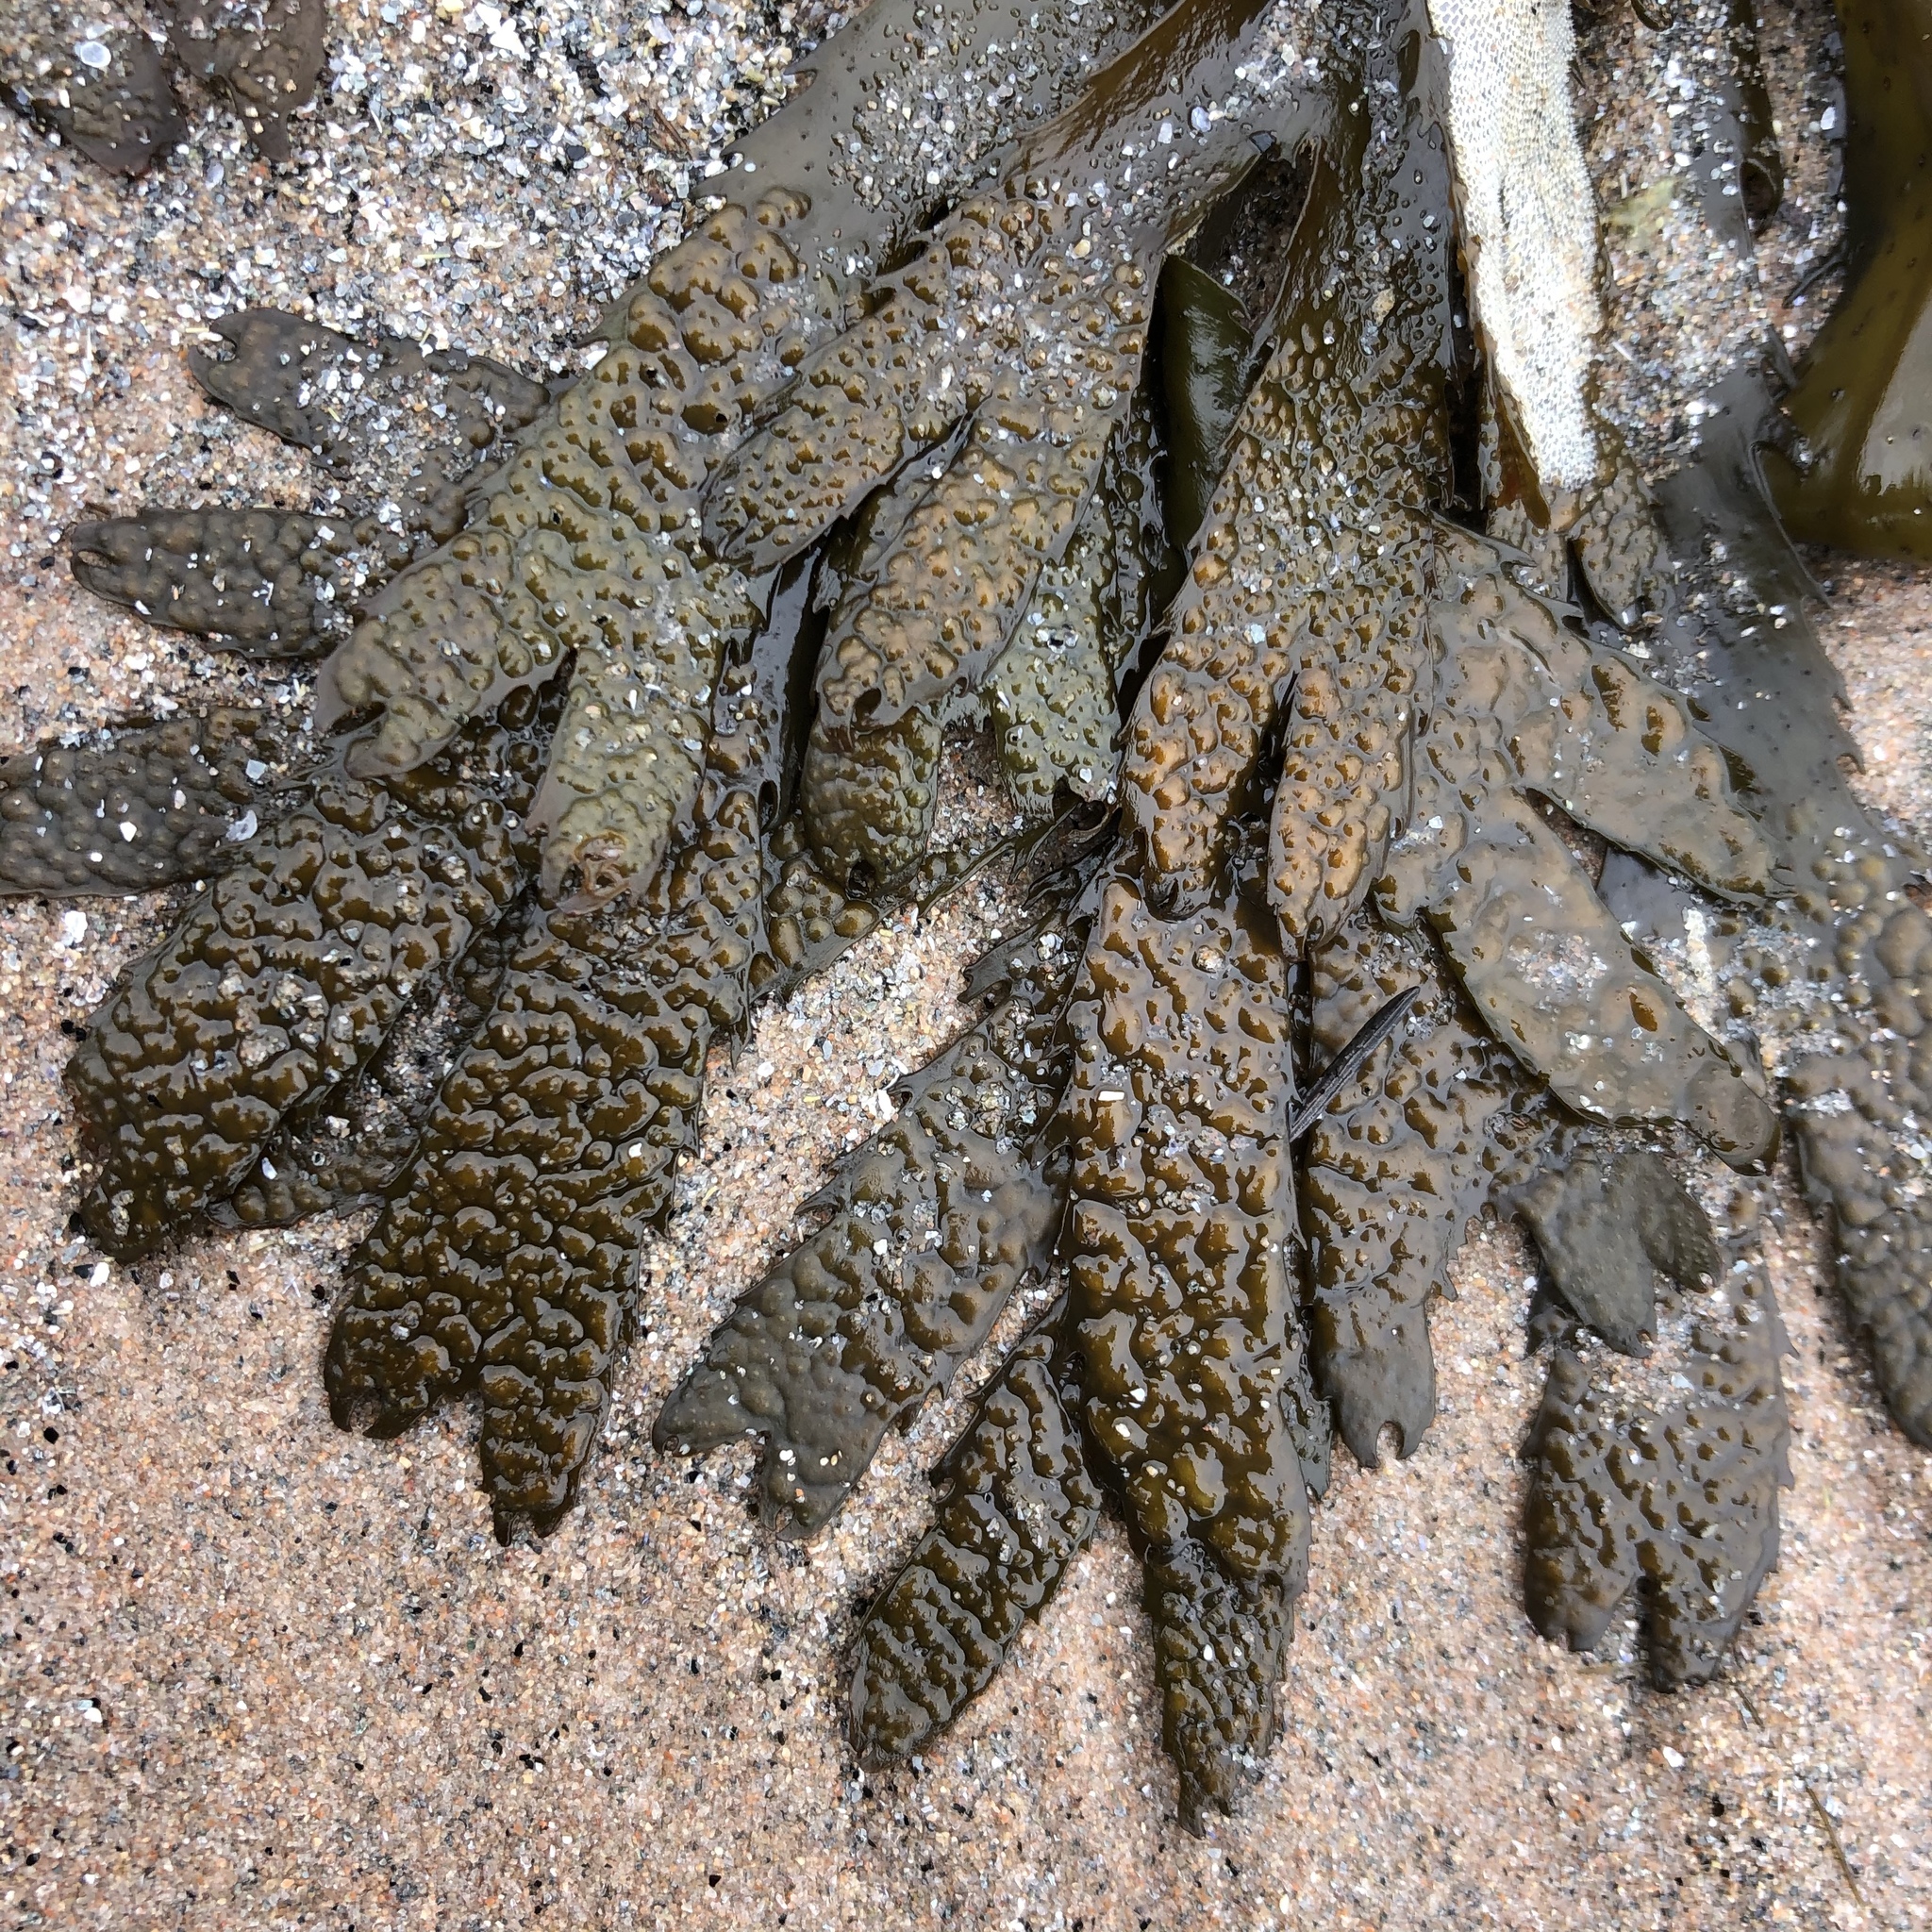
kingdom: Chromista
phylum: Ochrophyta
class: Phaeophyceae
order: Fucales
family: Fucaceae
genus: Fucus
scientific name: Fucus serratus
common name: Toothed wrack
